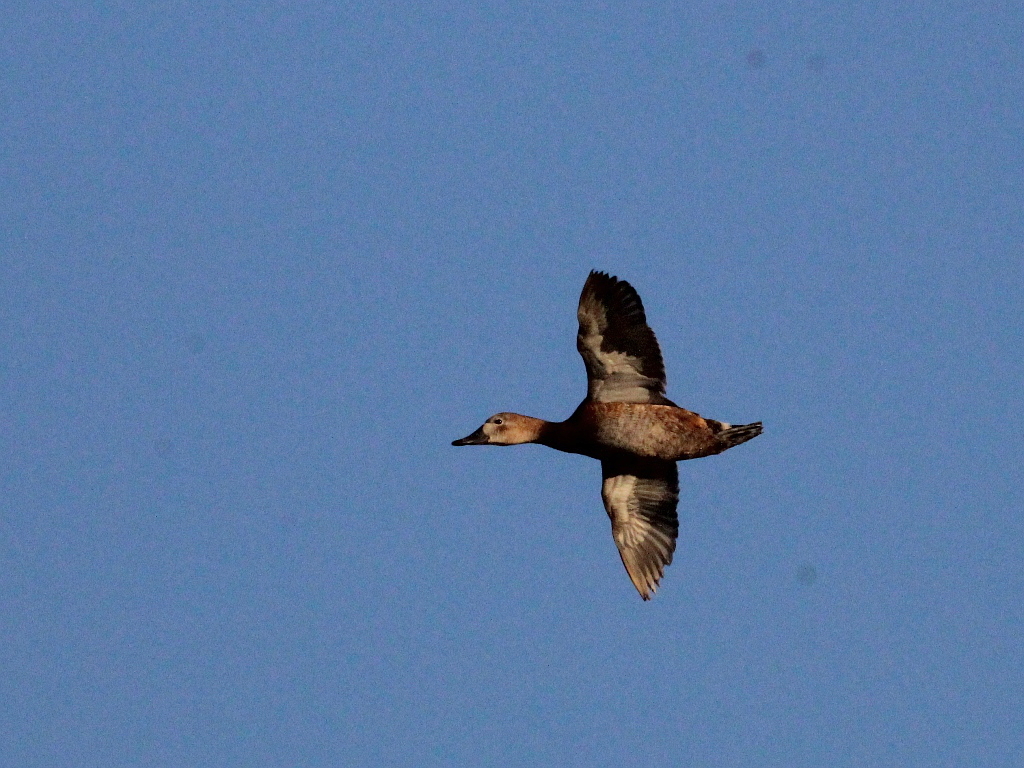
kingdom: Animalia
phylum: Chordata
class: Aves
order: Anseriformes
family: Anatidae
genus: Aythya
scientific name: Aythya ferina
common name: Common pochard
